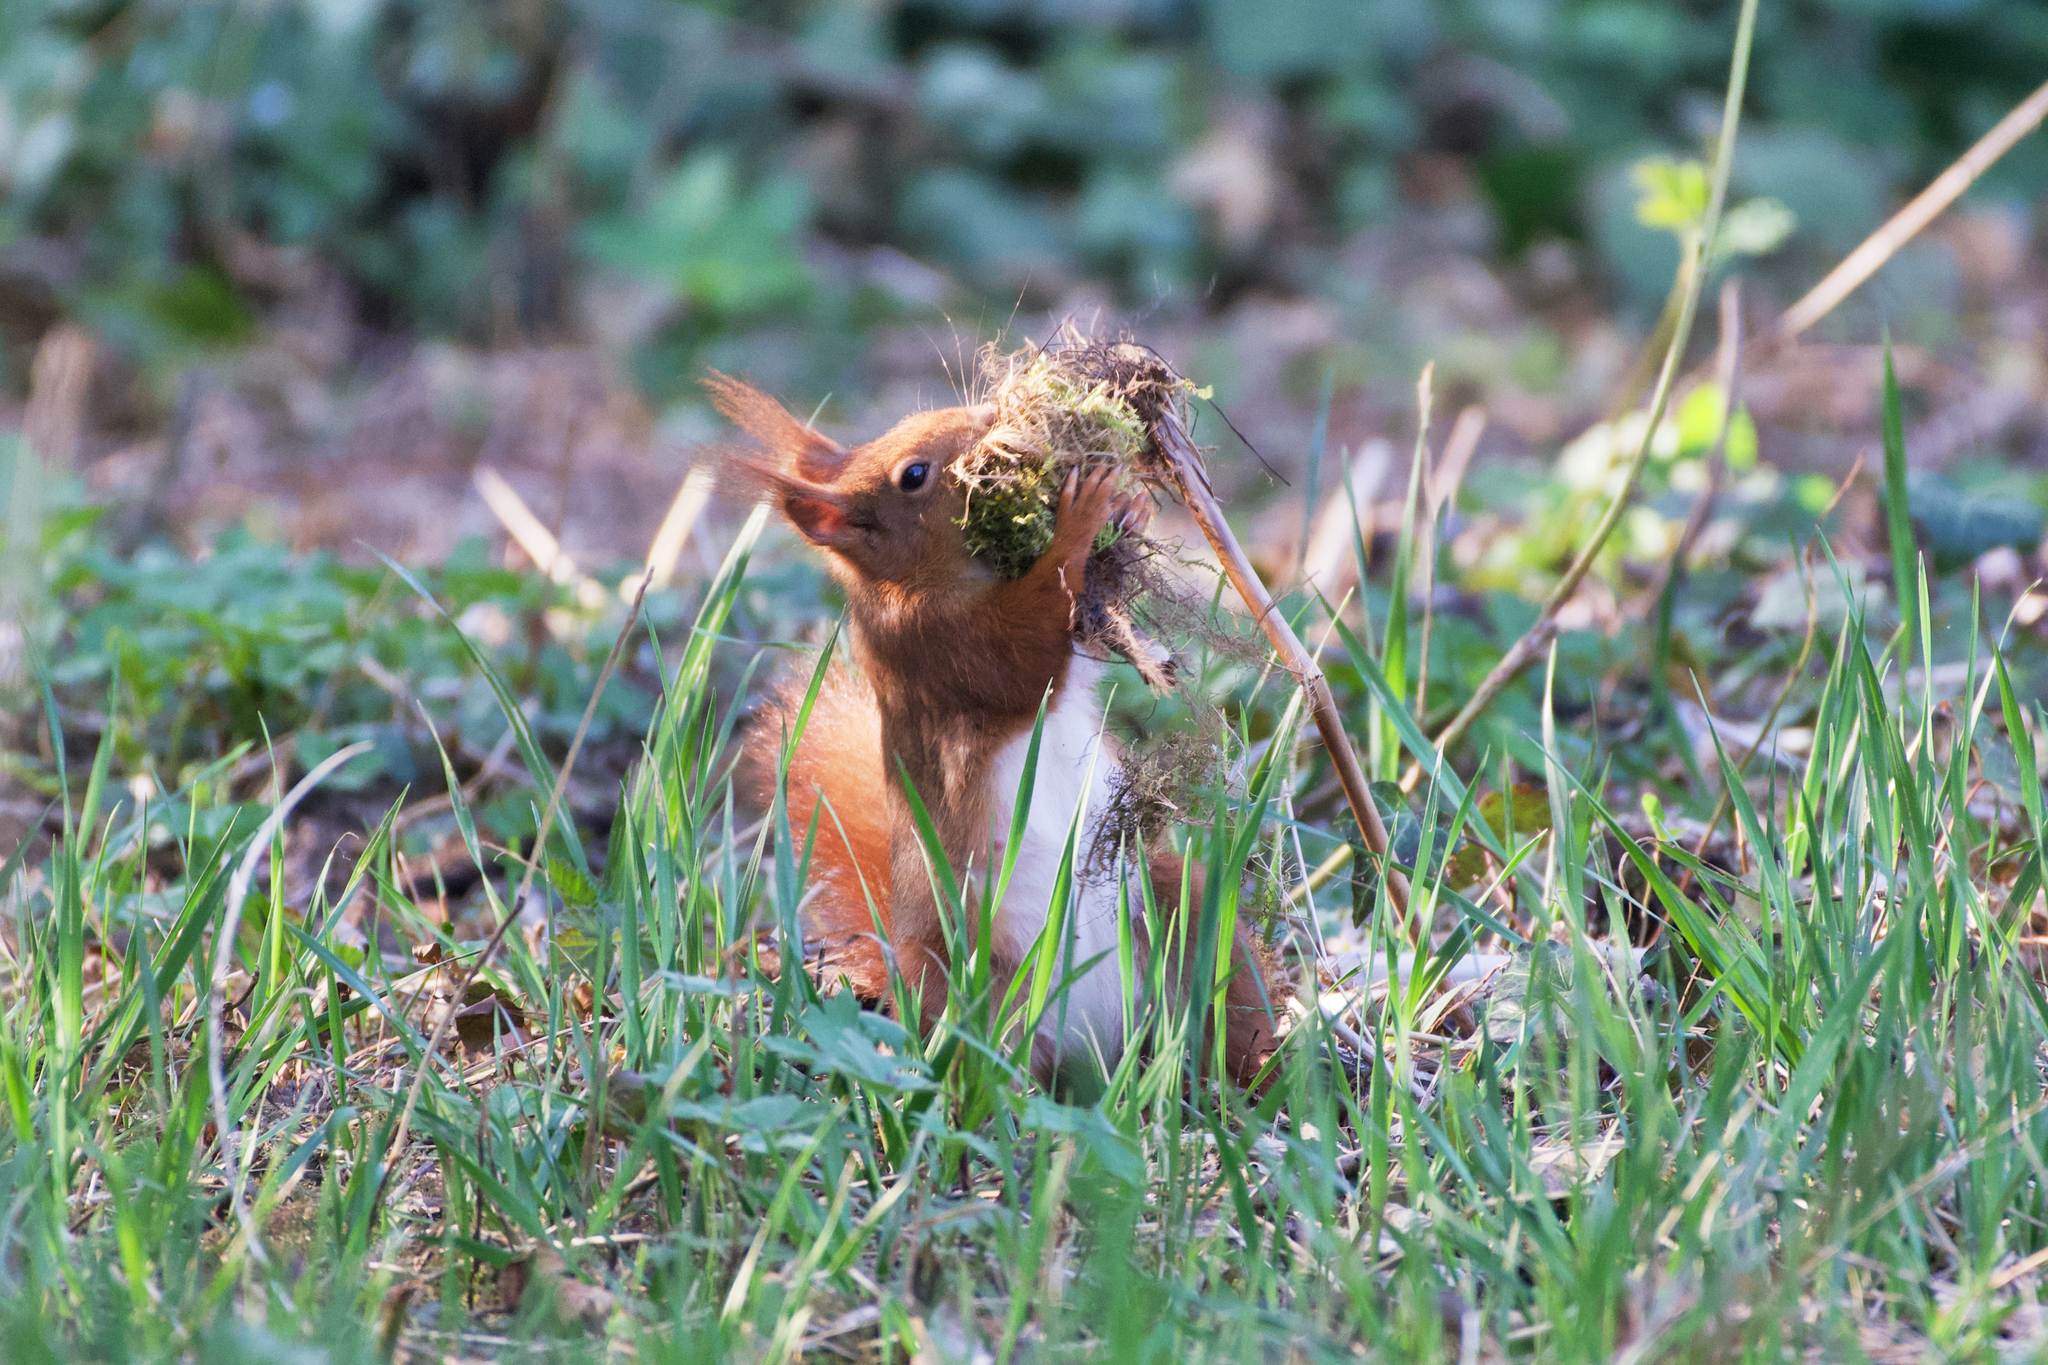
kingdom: Animalia
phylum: Chordata
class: Mammalia
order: Rodentia
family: Sciuridae
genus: Sciurus
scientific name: Sciurus vulgaris
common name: Eurasian red squirrel
